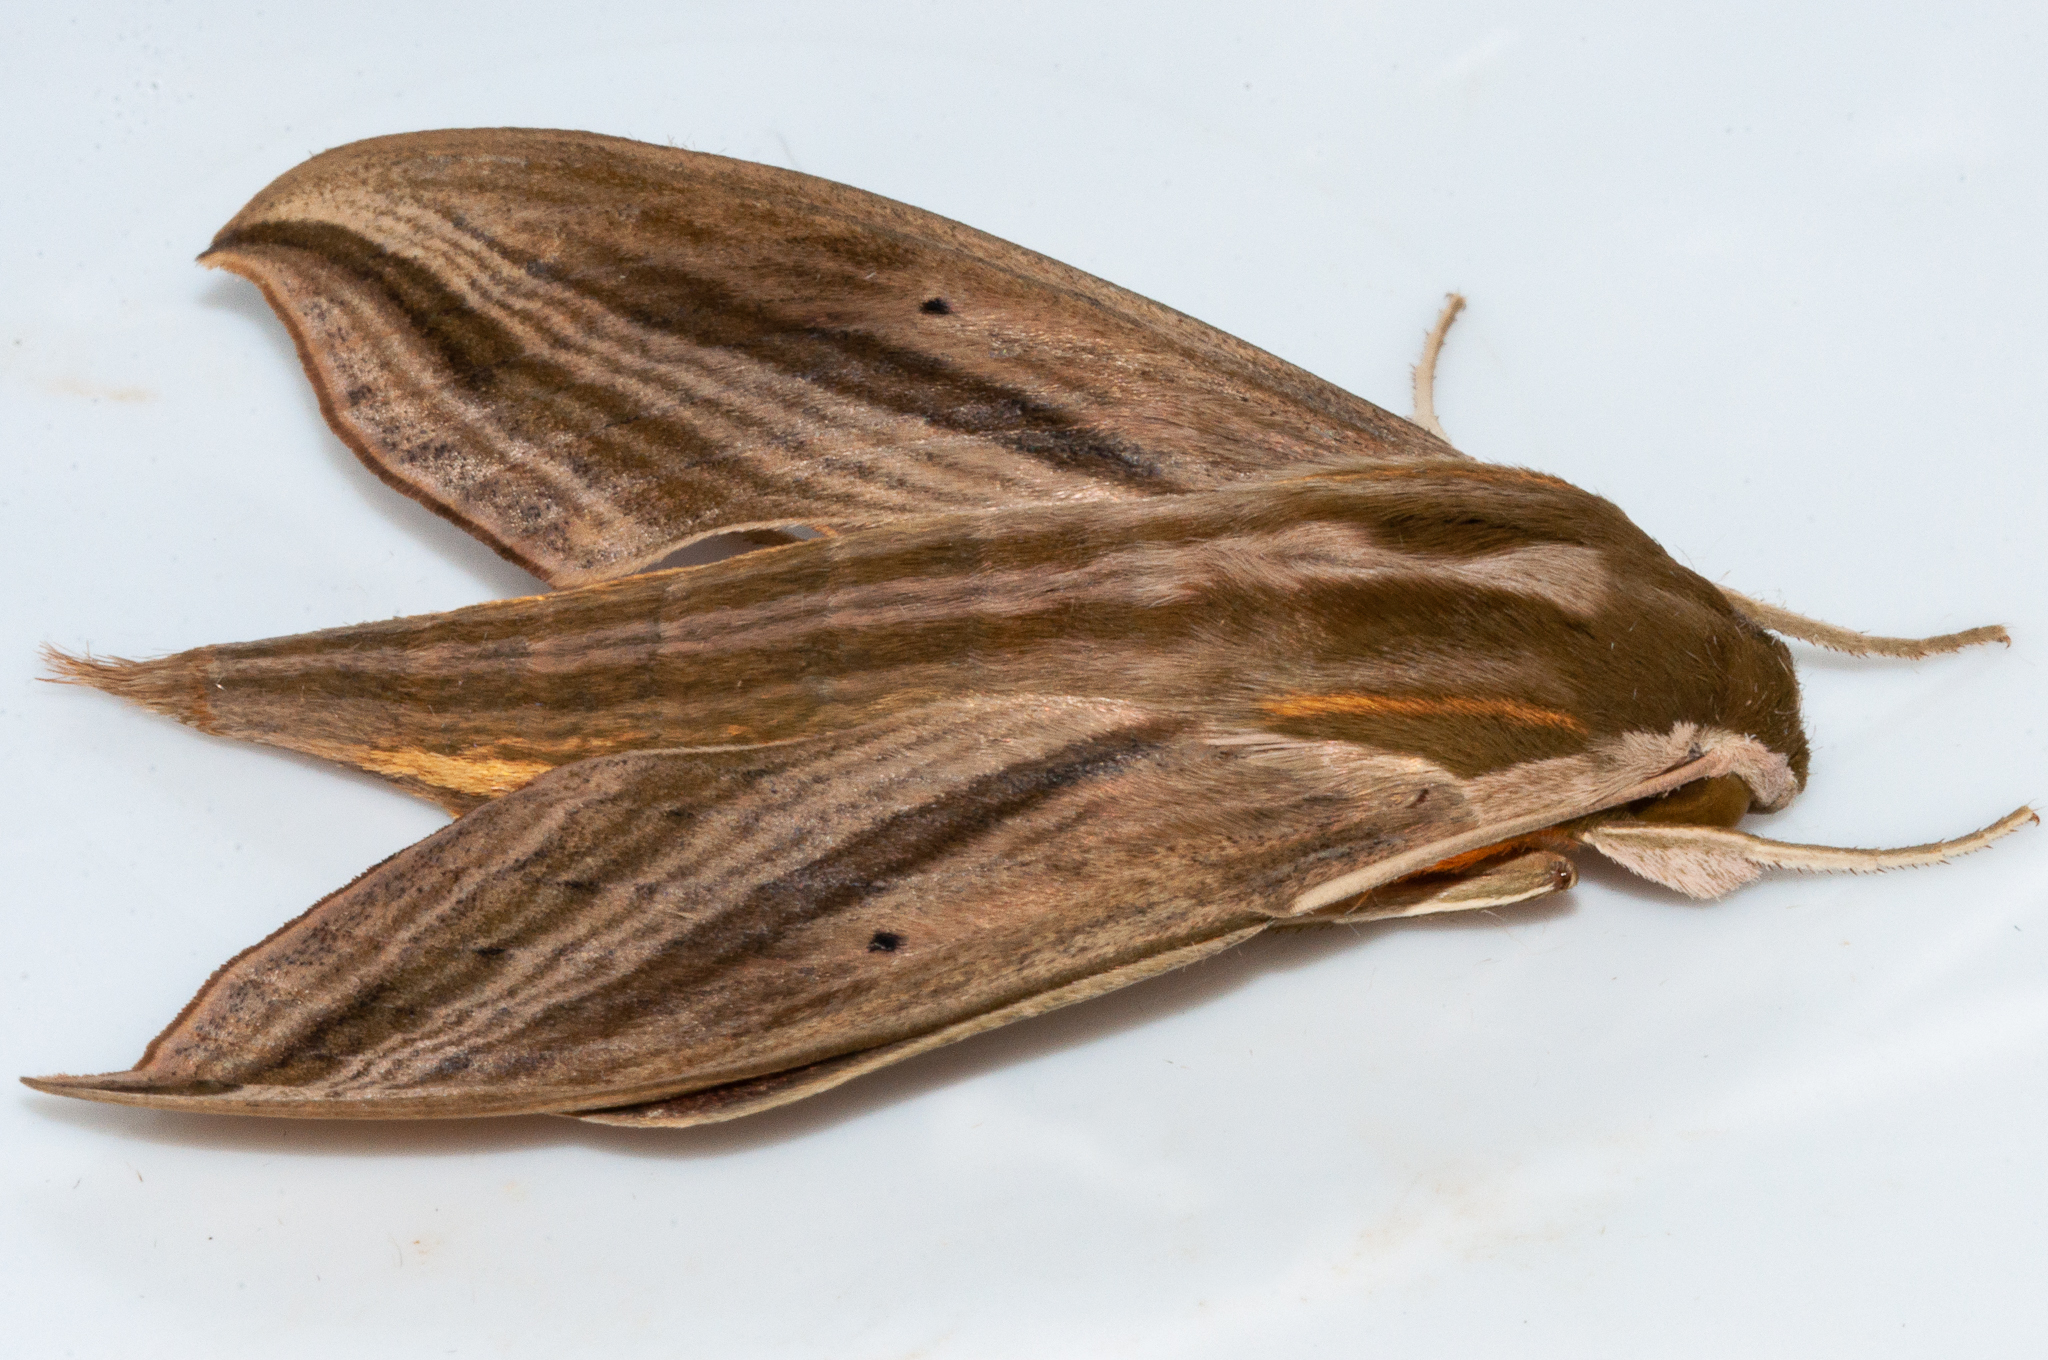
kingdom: Animalia
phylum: Arthropoda
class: Insecta
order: Lepidoptera
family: Sphingidae
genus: Hippotion
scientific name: Hippotion eson
